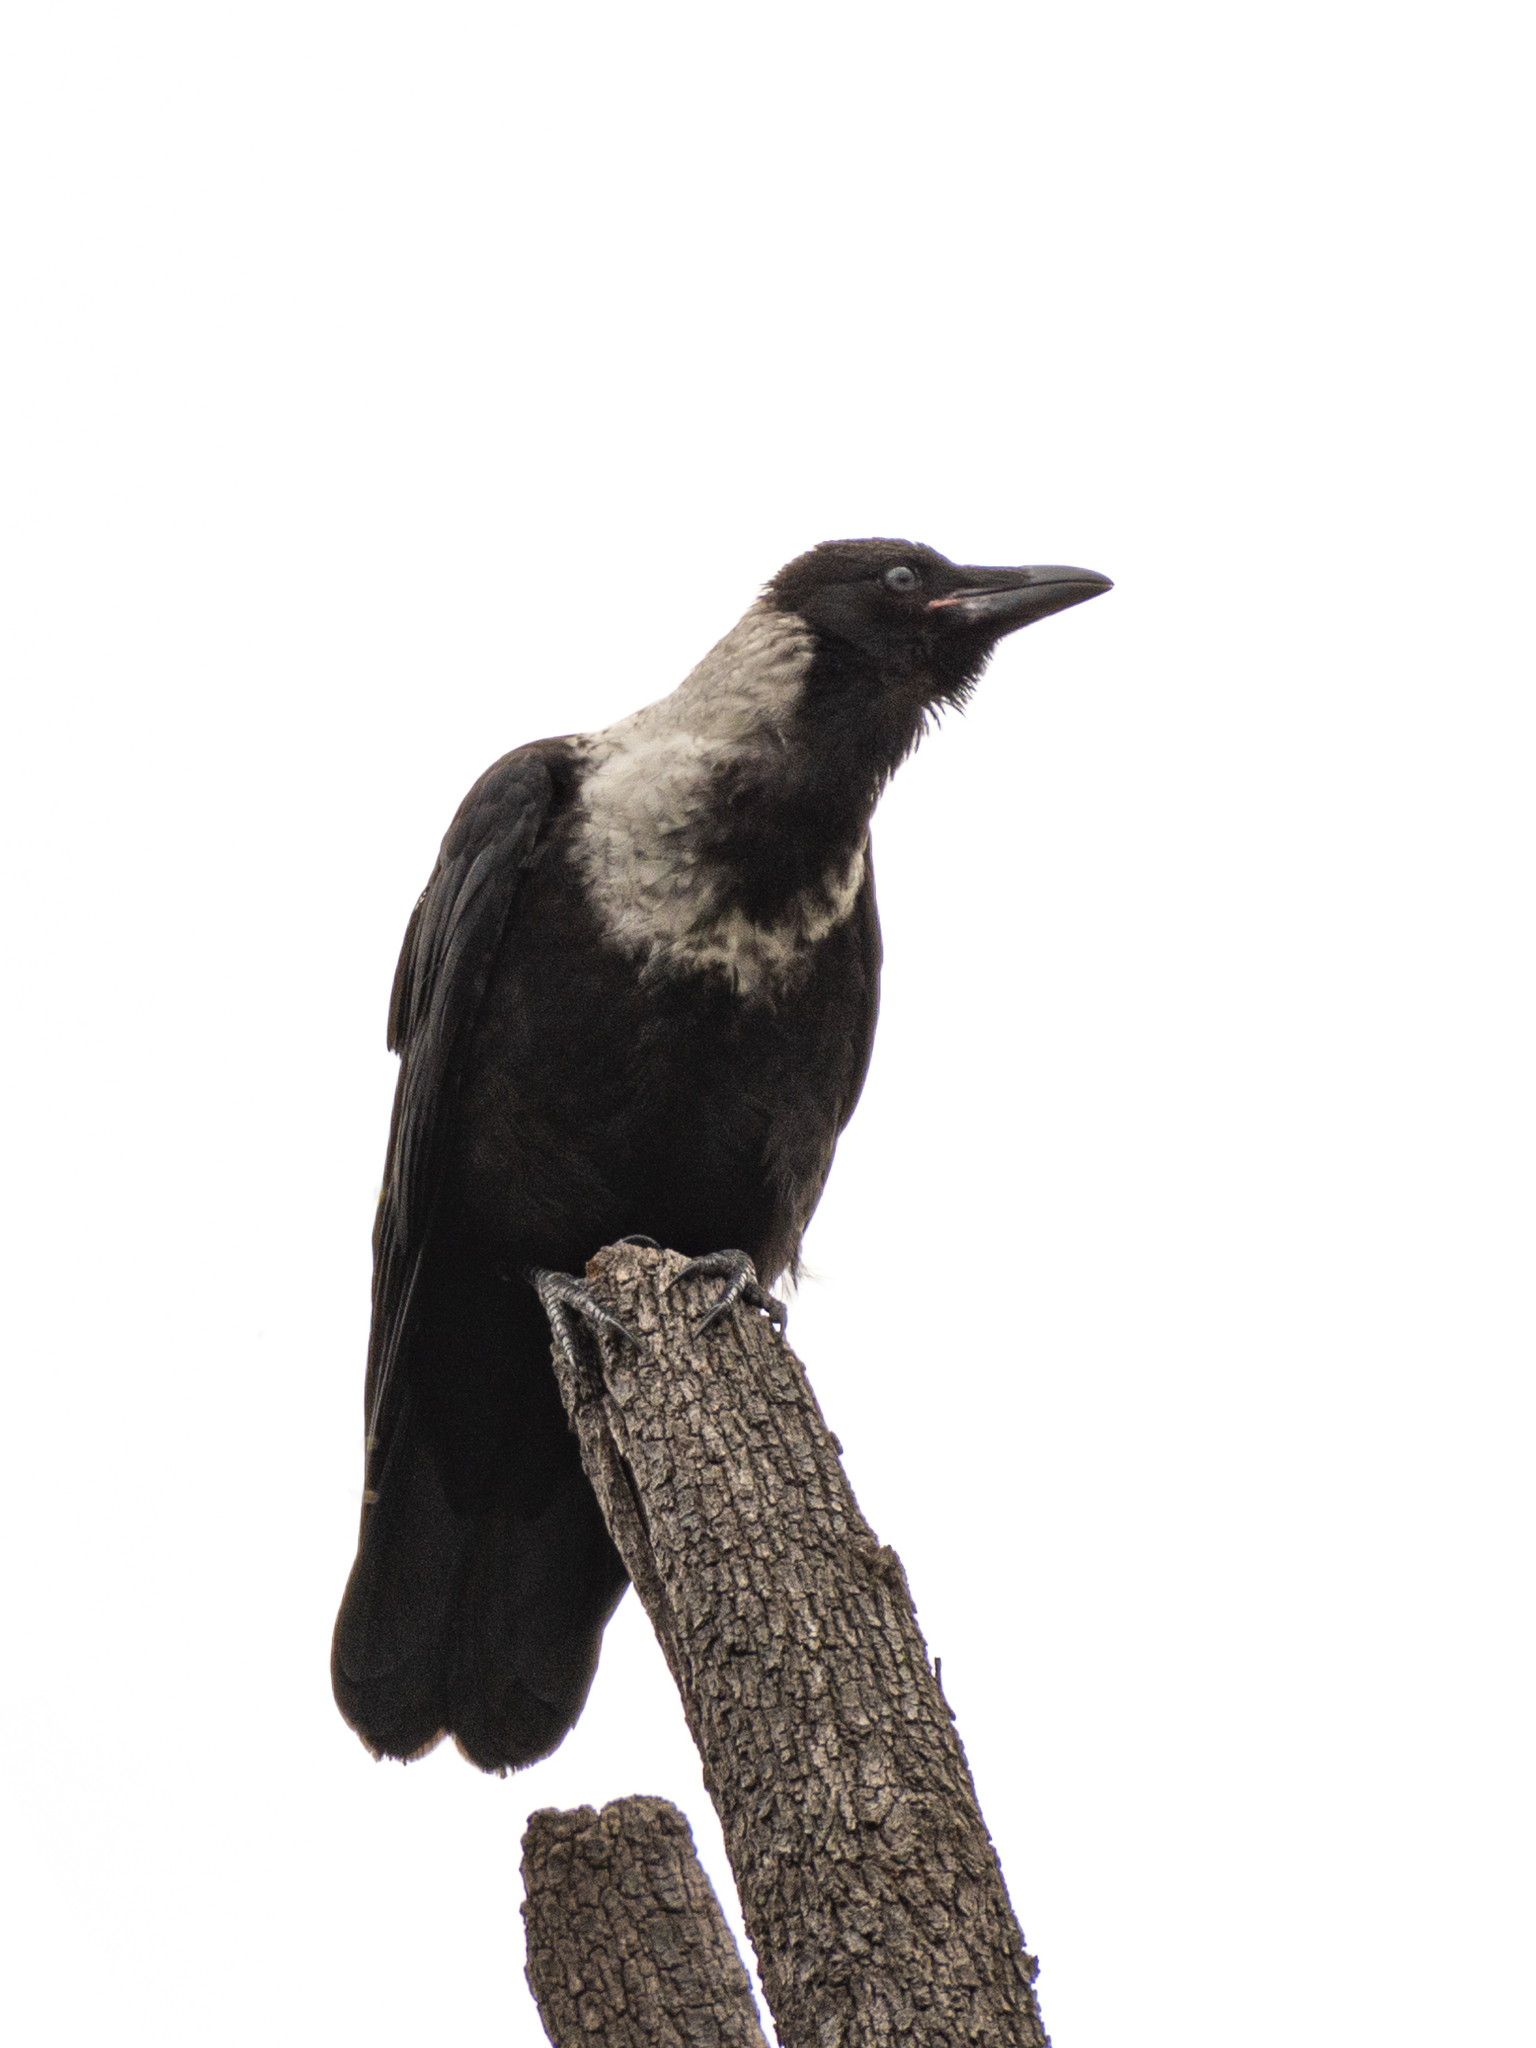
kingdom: Animalia
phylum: Chordata
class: Aves
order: Passeriformes
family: Corvidae
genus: Corvus
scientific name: Corvus pectoralis
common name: Collared crow
